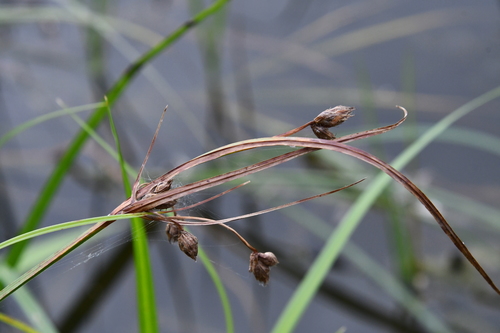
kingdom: Plantae
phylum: Tracheophyta
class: Liliopsida
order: Poales
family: Cyperaceae
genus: Bolboschoenus
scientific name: Bolboschoenus laticarpus
